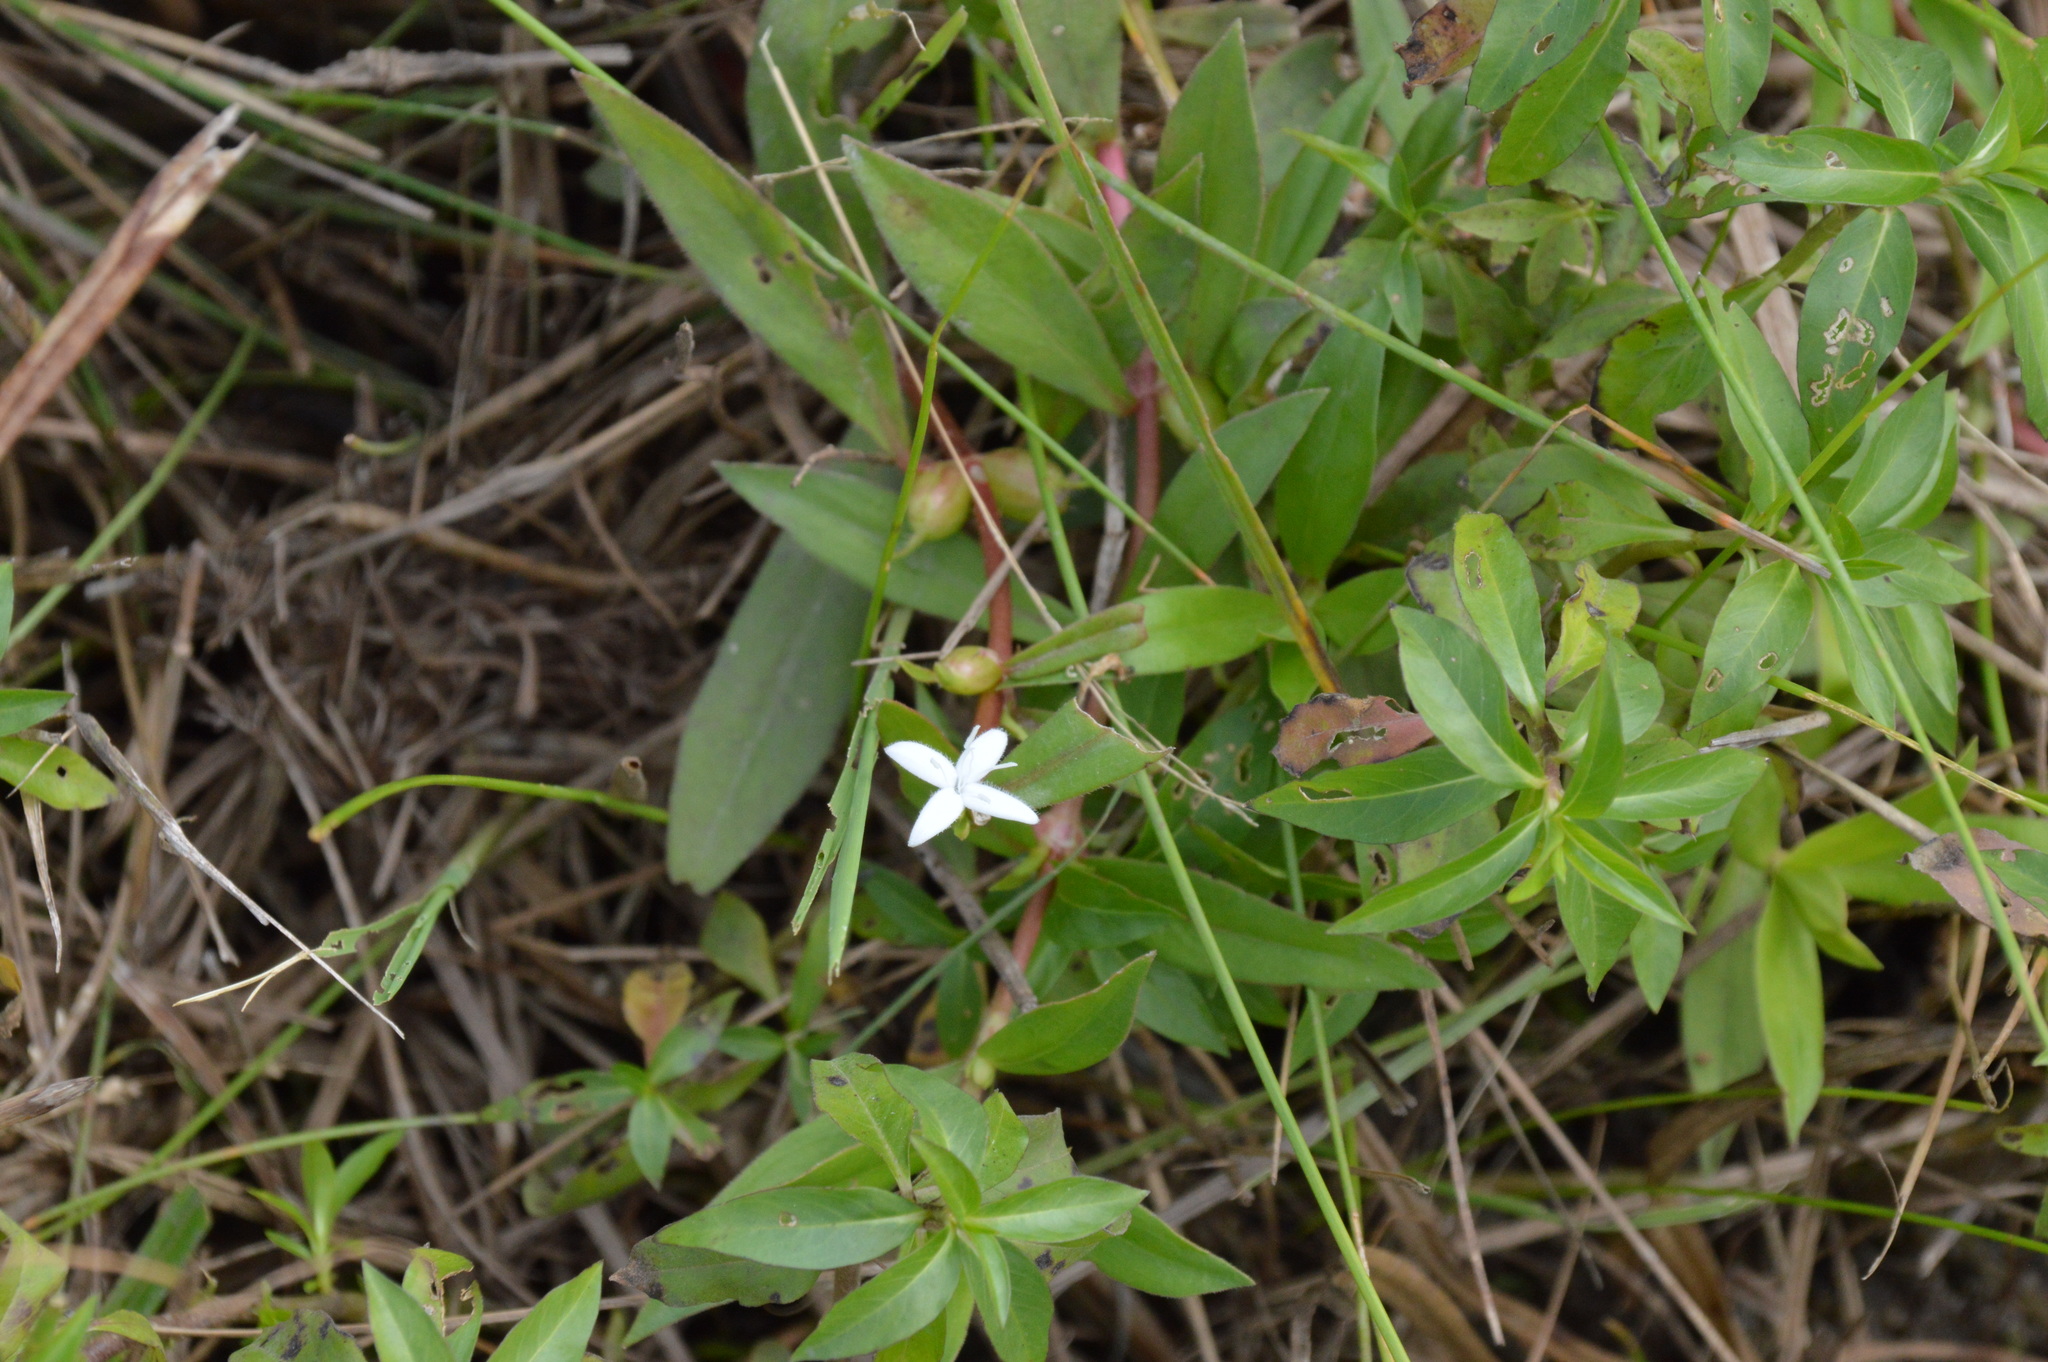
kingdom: Plantae
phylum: Tracheophyta
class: Magnoliopsida
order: Gentianales
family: Rubiaceae
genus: Diodia
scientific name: Diodia virginiana
